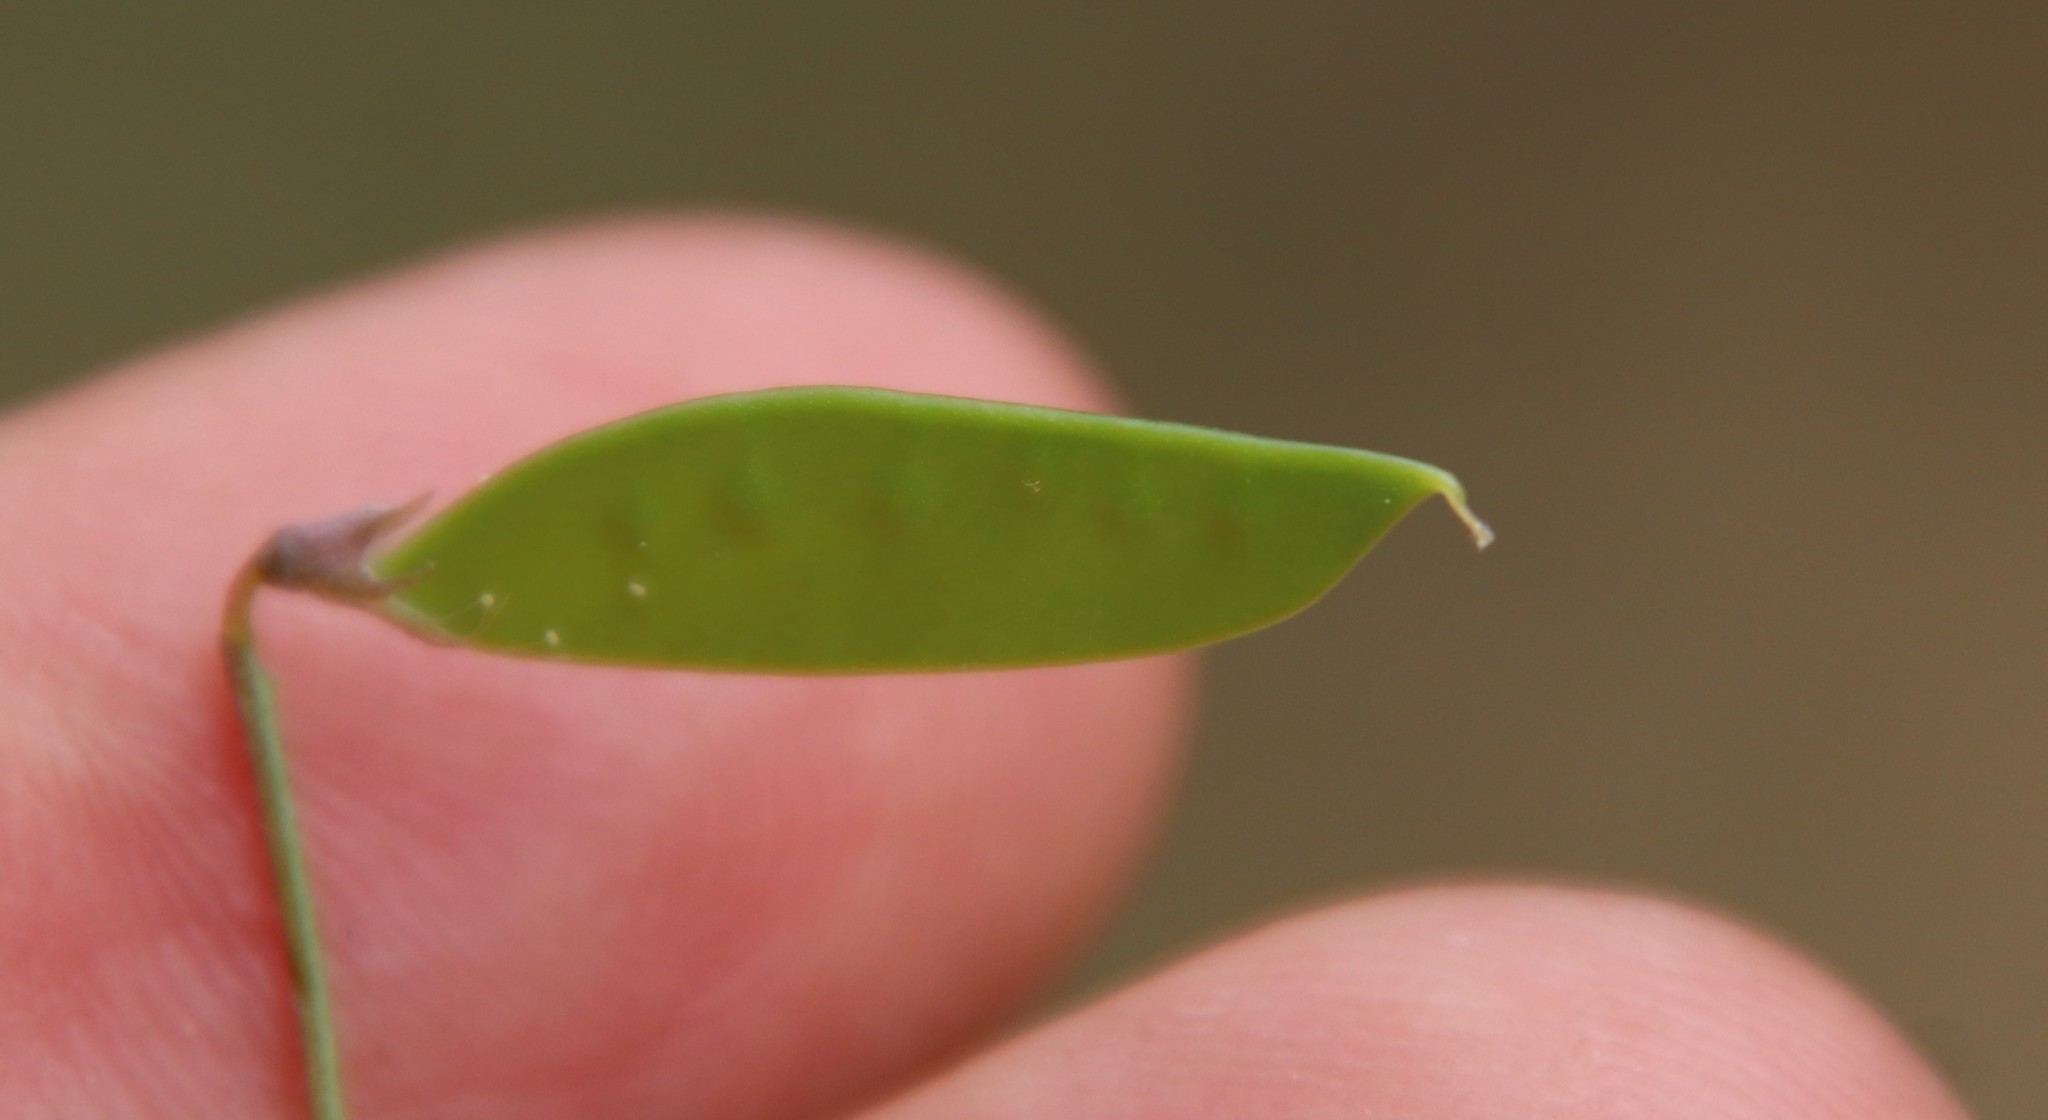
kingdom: Plantae
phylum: Tracheophyta
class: Magnoliopsida
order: Fabales
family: Fabaceae
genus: Vicia
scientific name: Vicia ludoviciana
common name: Louisiana vetch
